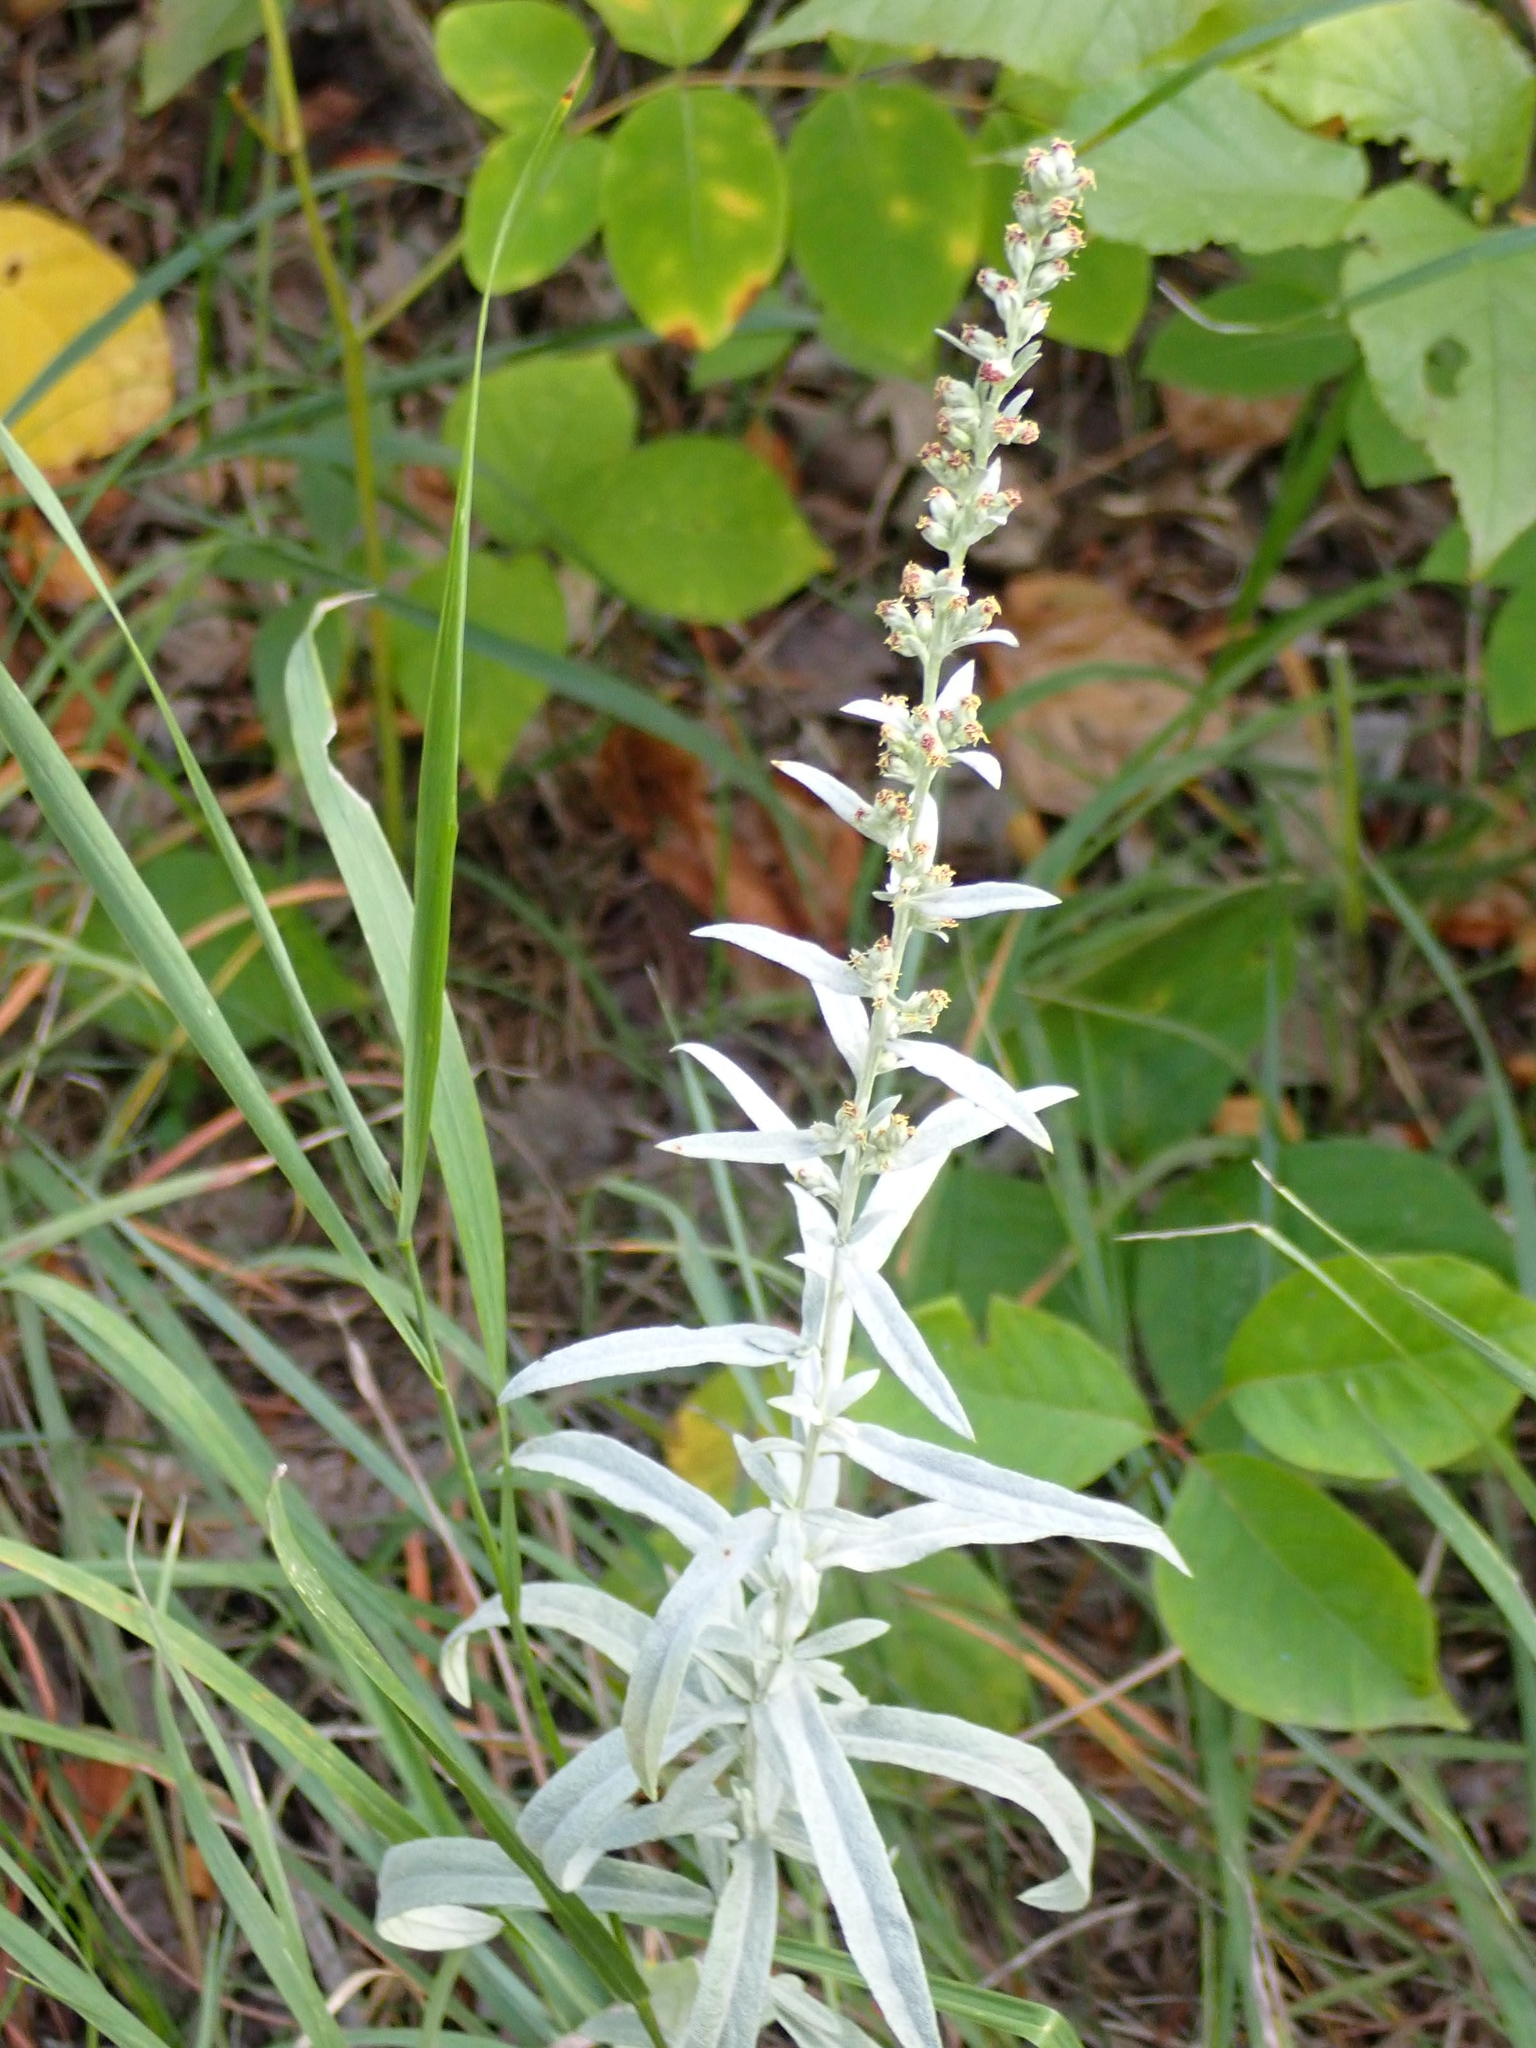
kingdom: Plantae
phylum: Tracheophyta
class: Magnoliopsida
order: Asterales
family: Asteraceae
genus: Artemisia
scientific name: Artemisia ludoviciana
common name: Western mugwort
